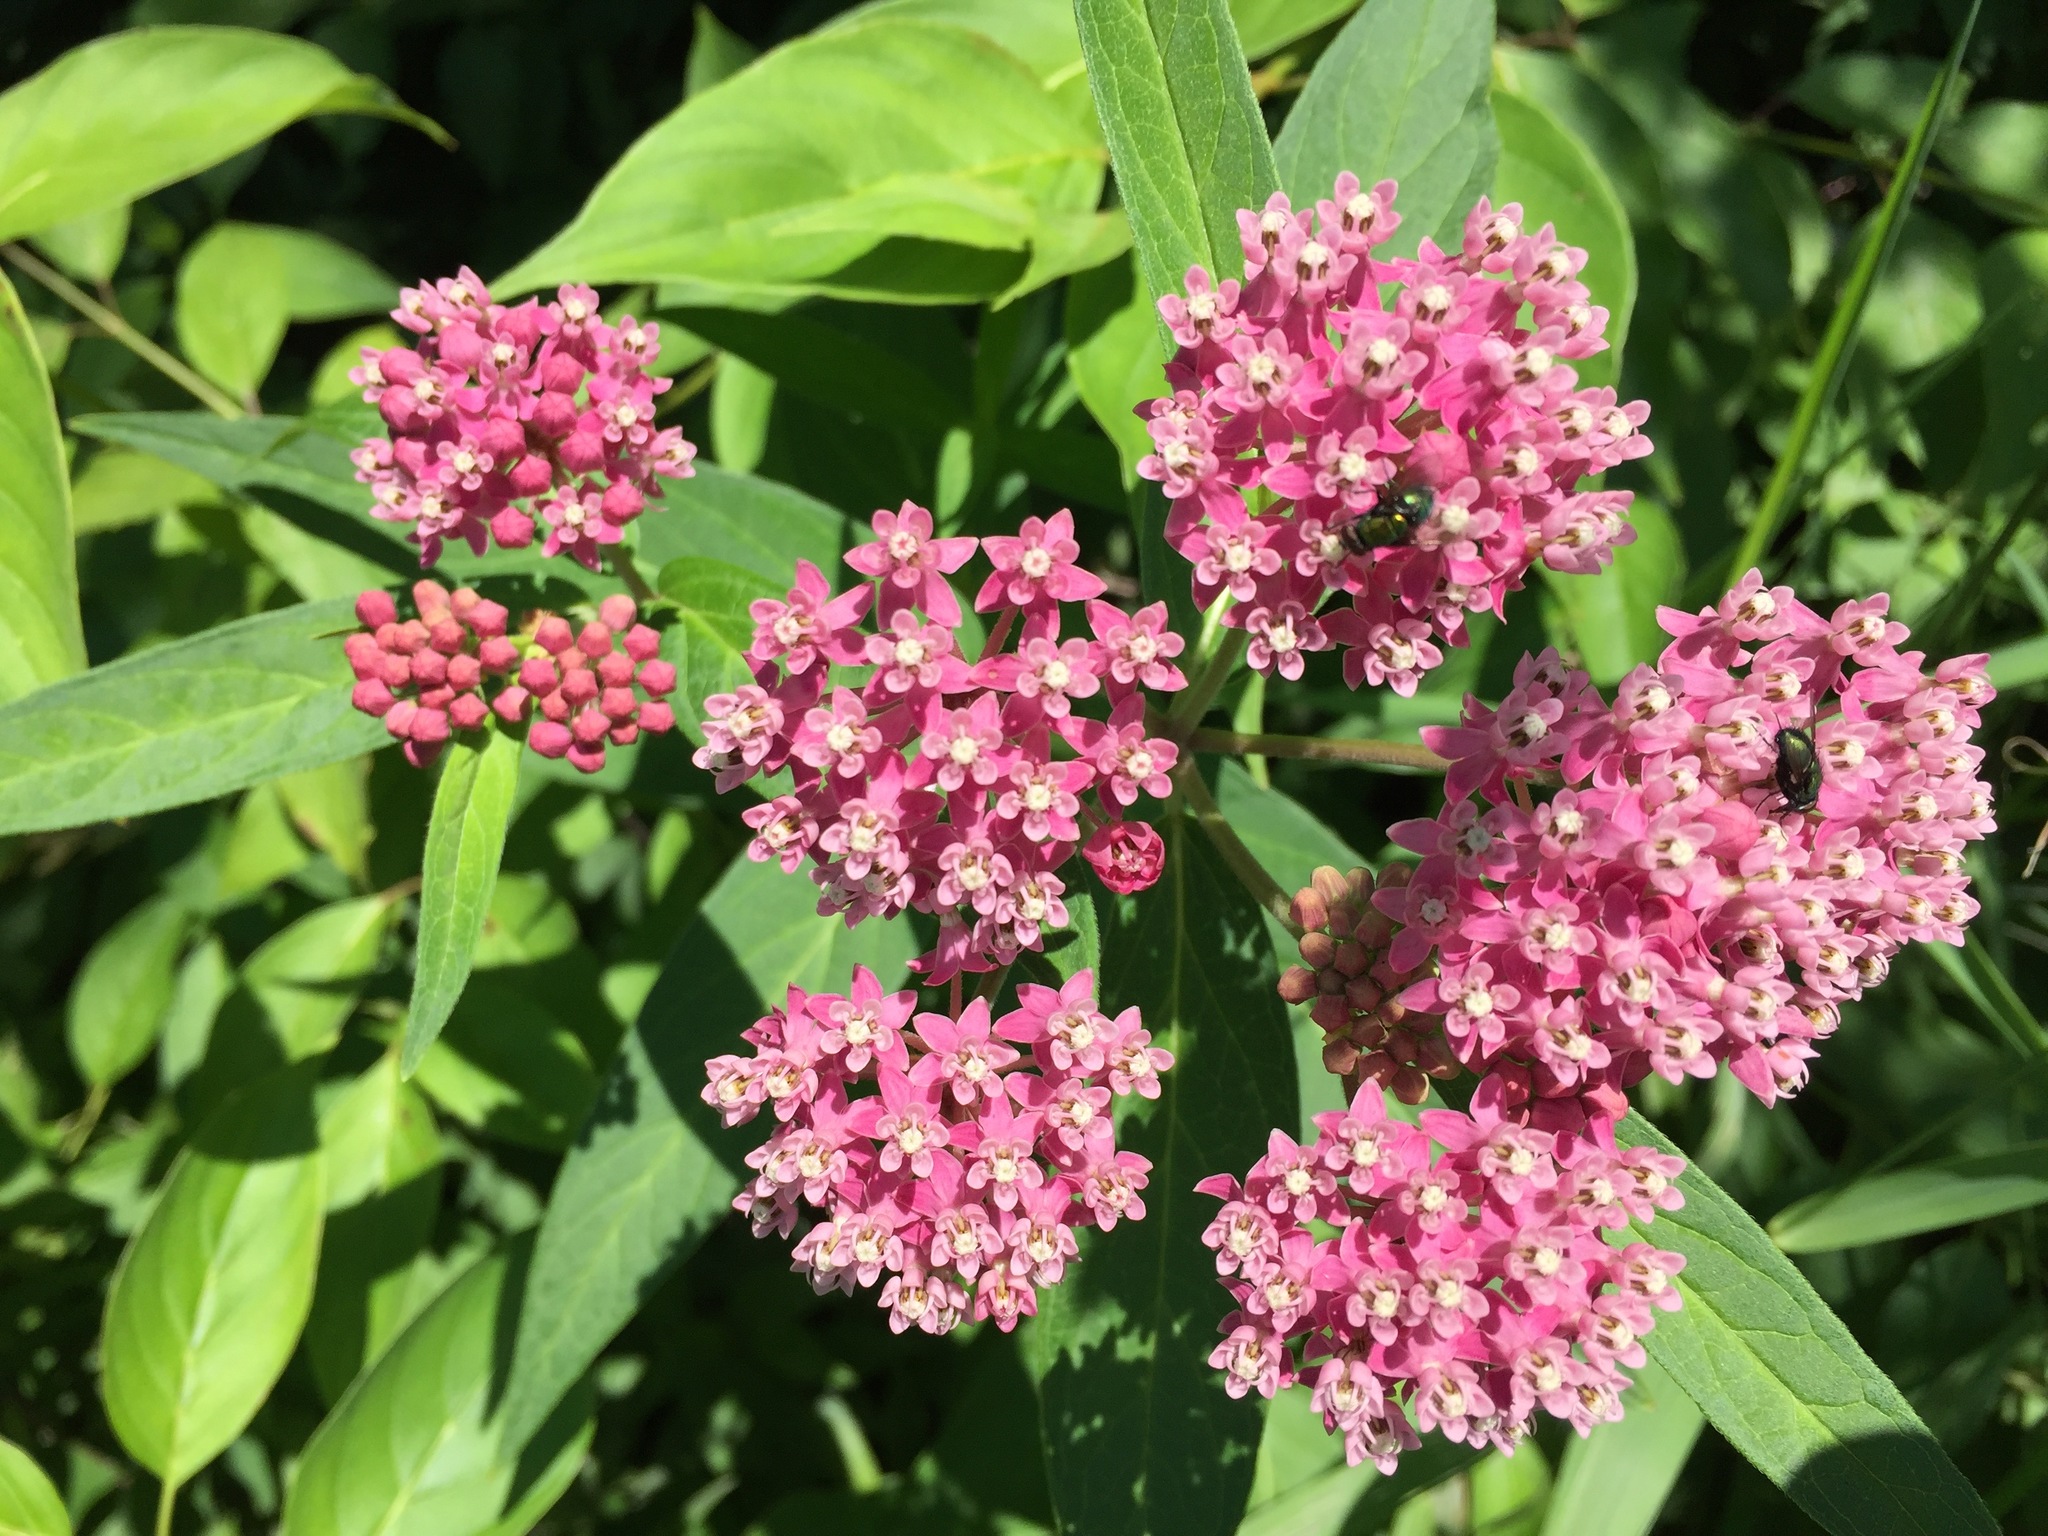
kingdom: Plantae
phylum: Tracheophyta
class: Magnoliopsida
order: Gentianales
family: Apocynaceae
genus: Asclepias
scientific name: Asclepias incarnata
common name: Swamp milkweed
